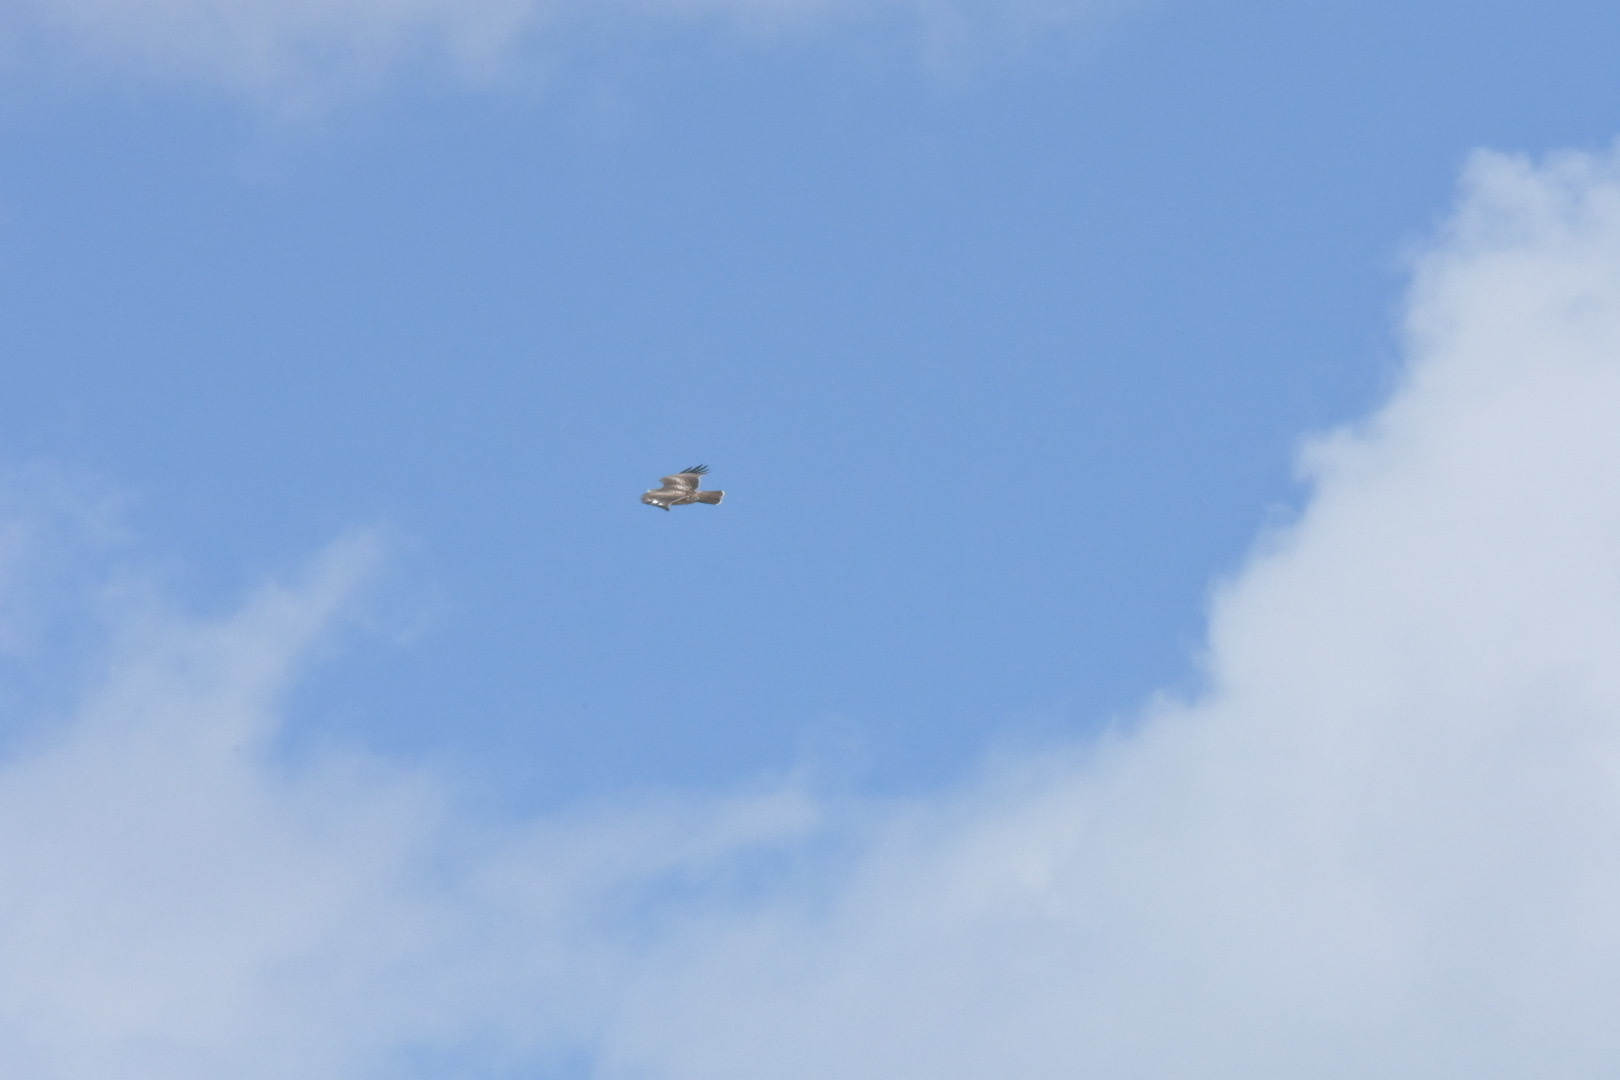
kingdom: Animalia
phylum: Chordata
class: Aves
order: Accipitriformes
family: Accipitridae
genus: Buteo
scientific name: Buteo jamaicensis
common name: Red-tailed hawk
